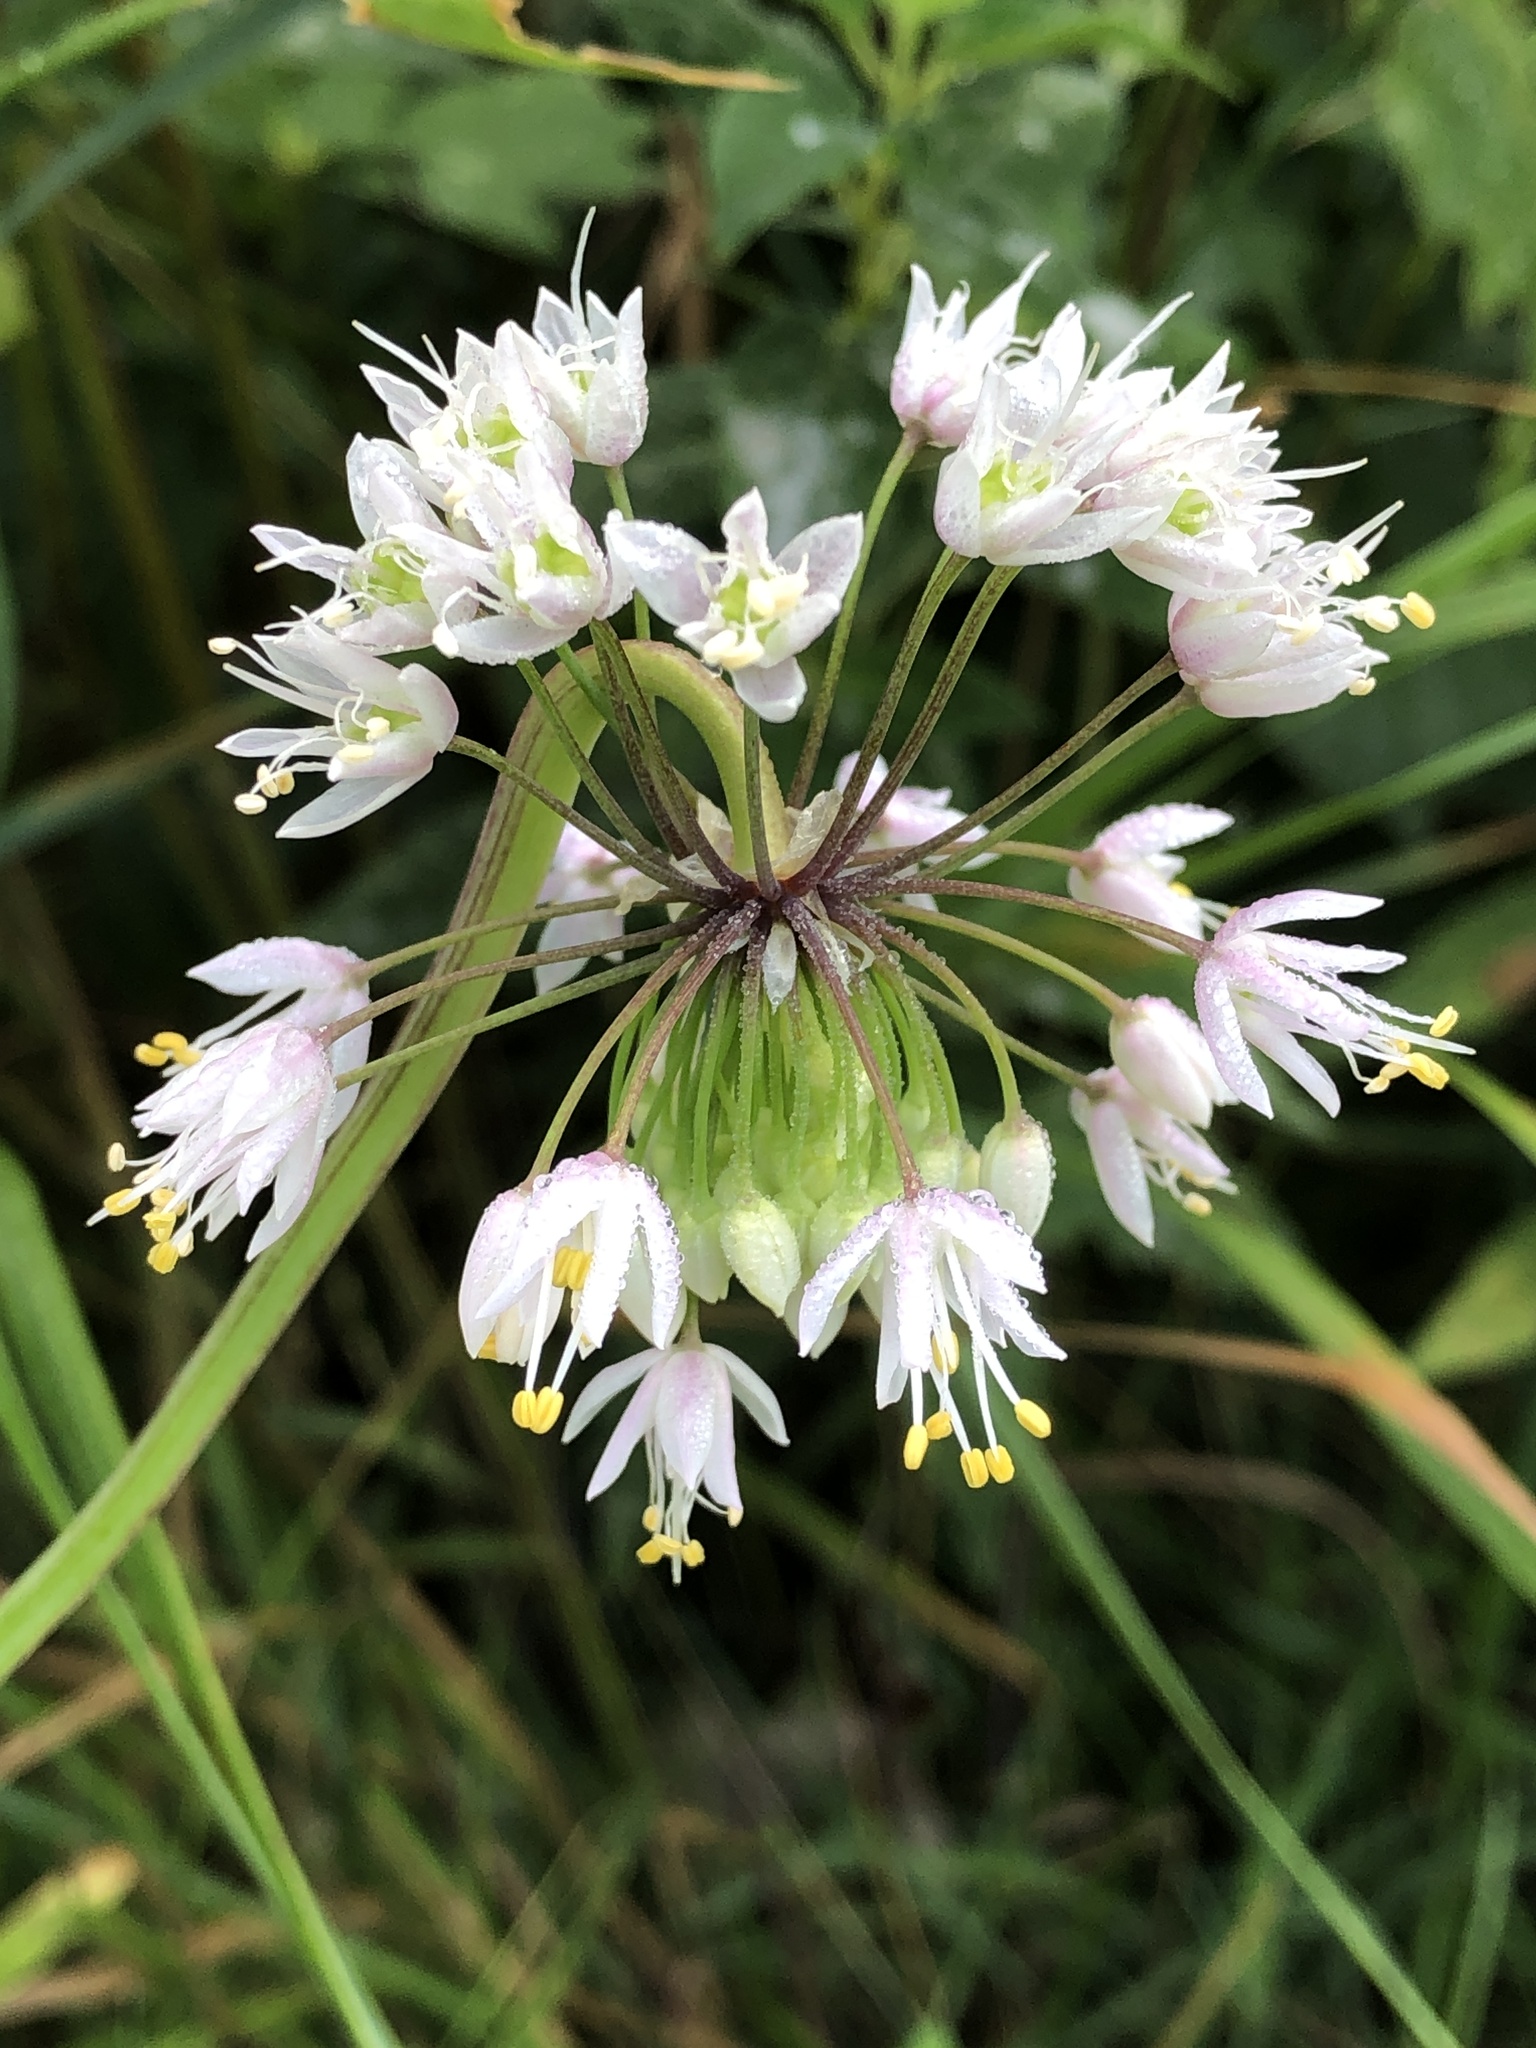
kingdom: Plantae
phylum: Tracheophyta
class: Liliopsida
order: Asparagales
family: Amaryllidaceae
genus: Allium
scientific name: Allium cernuum
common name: Nodding onion
